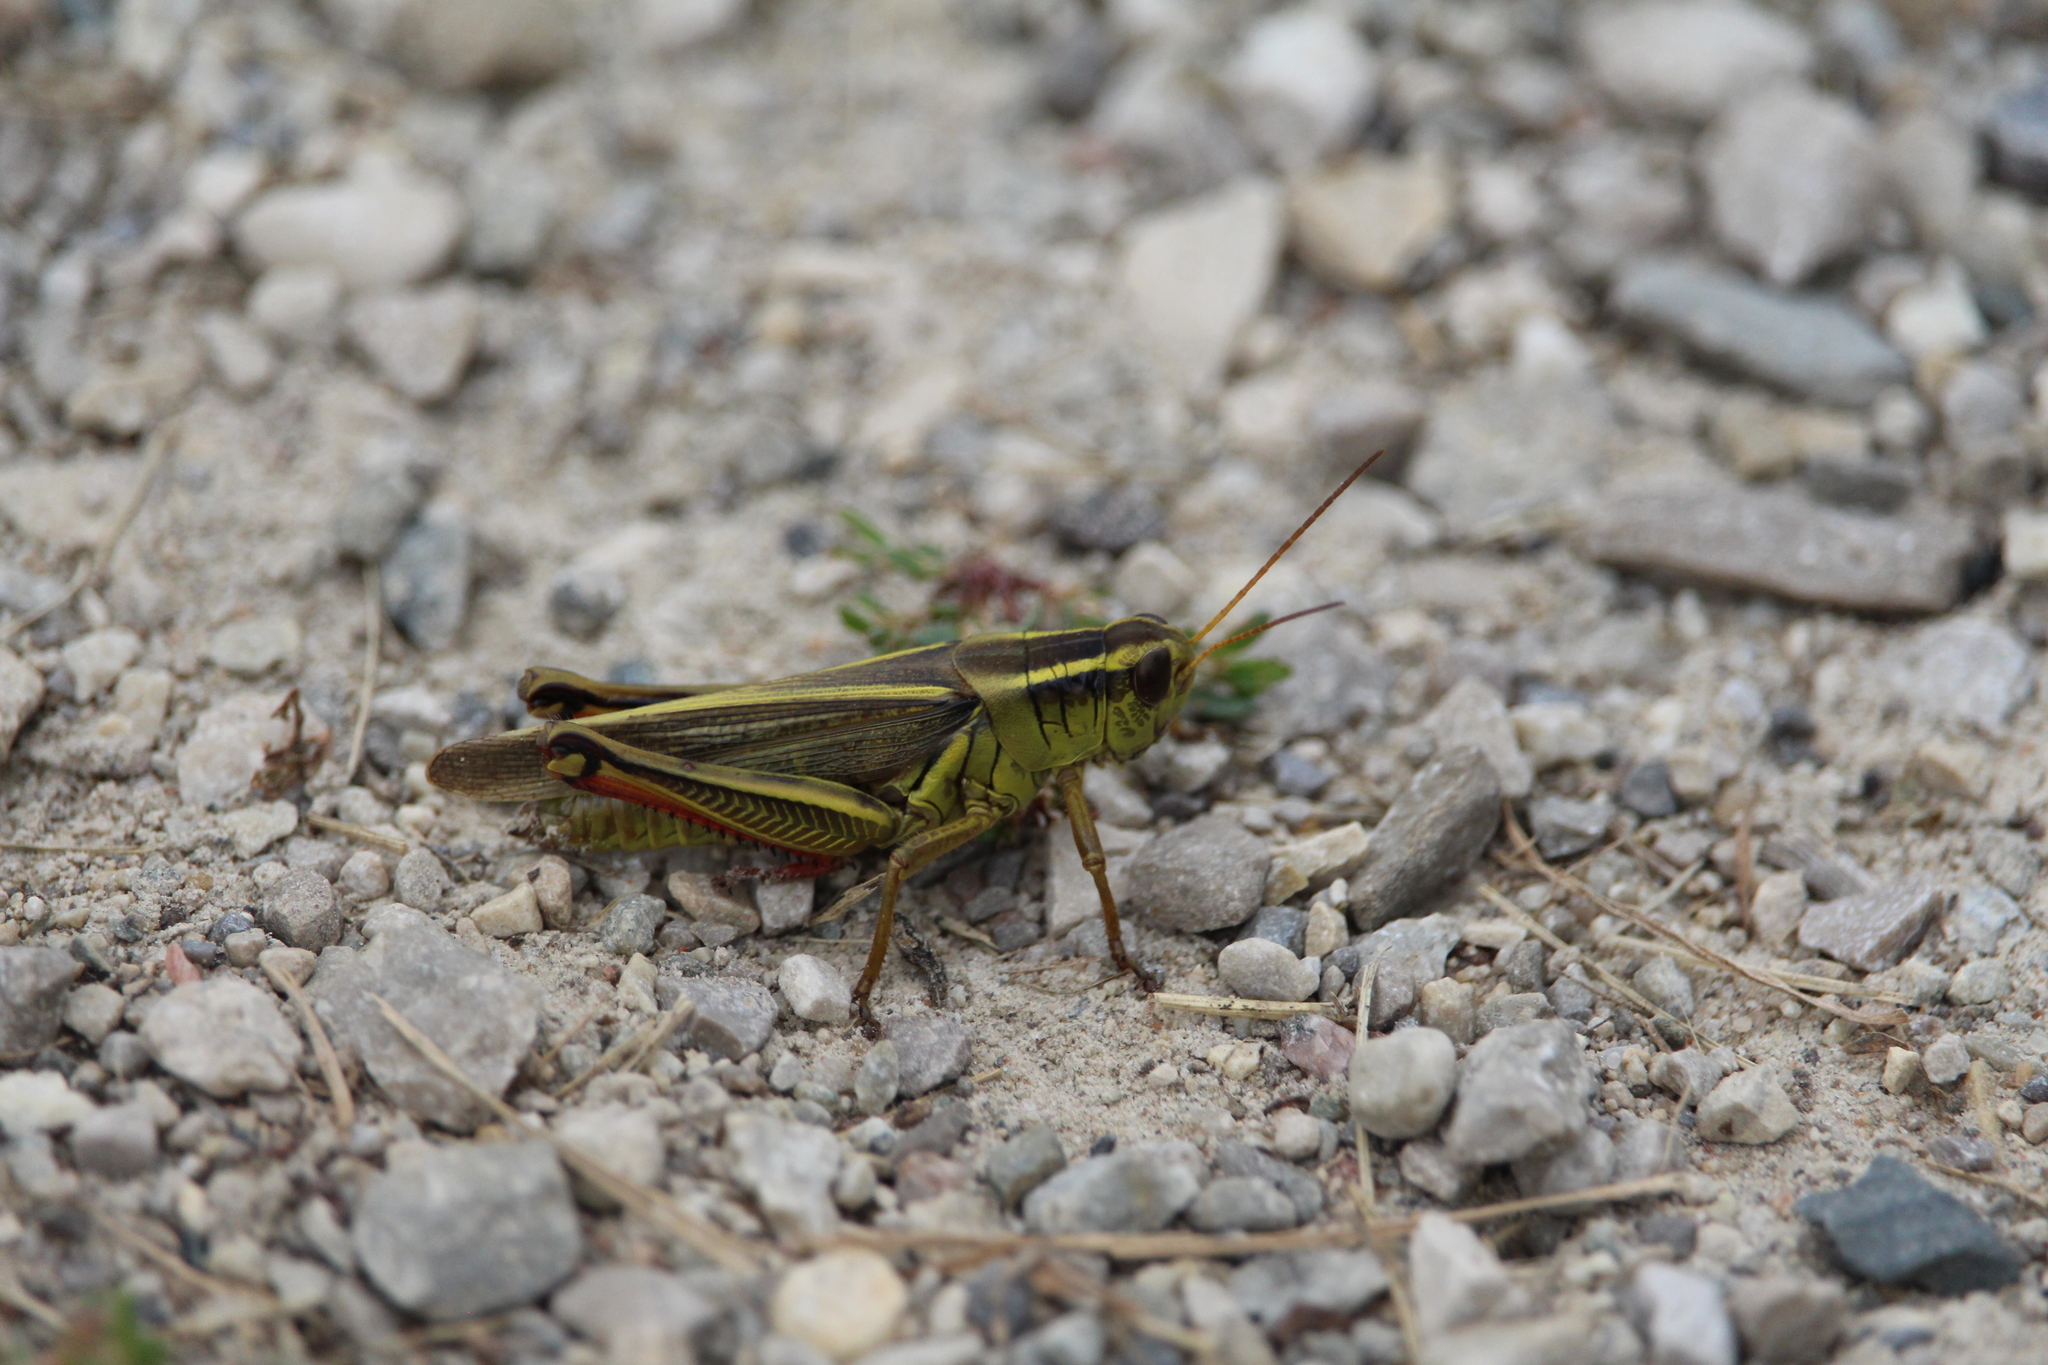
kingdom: Animalia
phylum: Arthropoda
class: Insecta
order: Orthoptera
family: Acrididae
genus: Melanoplus
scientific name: Melanoplus bivittatus
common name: Two-striped grasshopper
